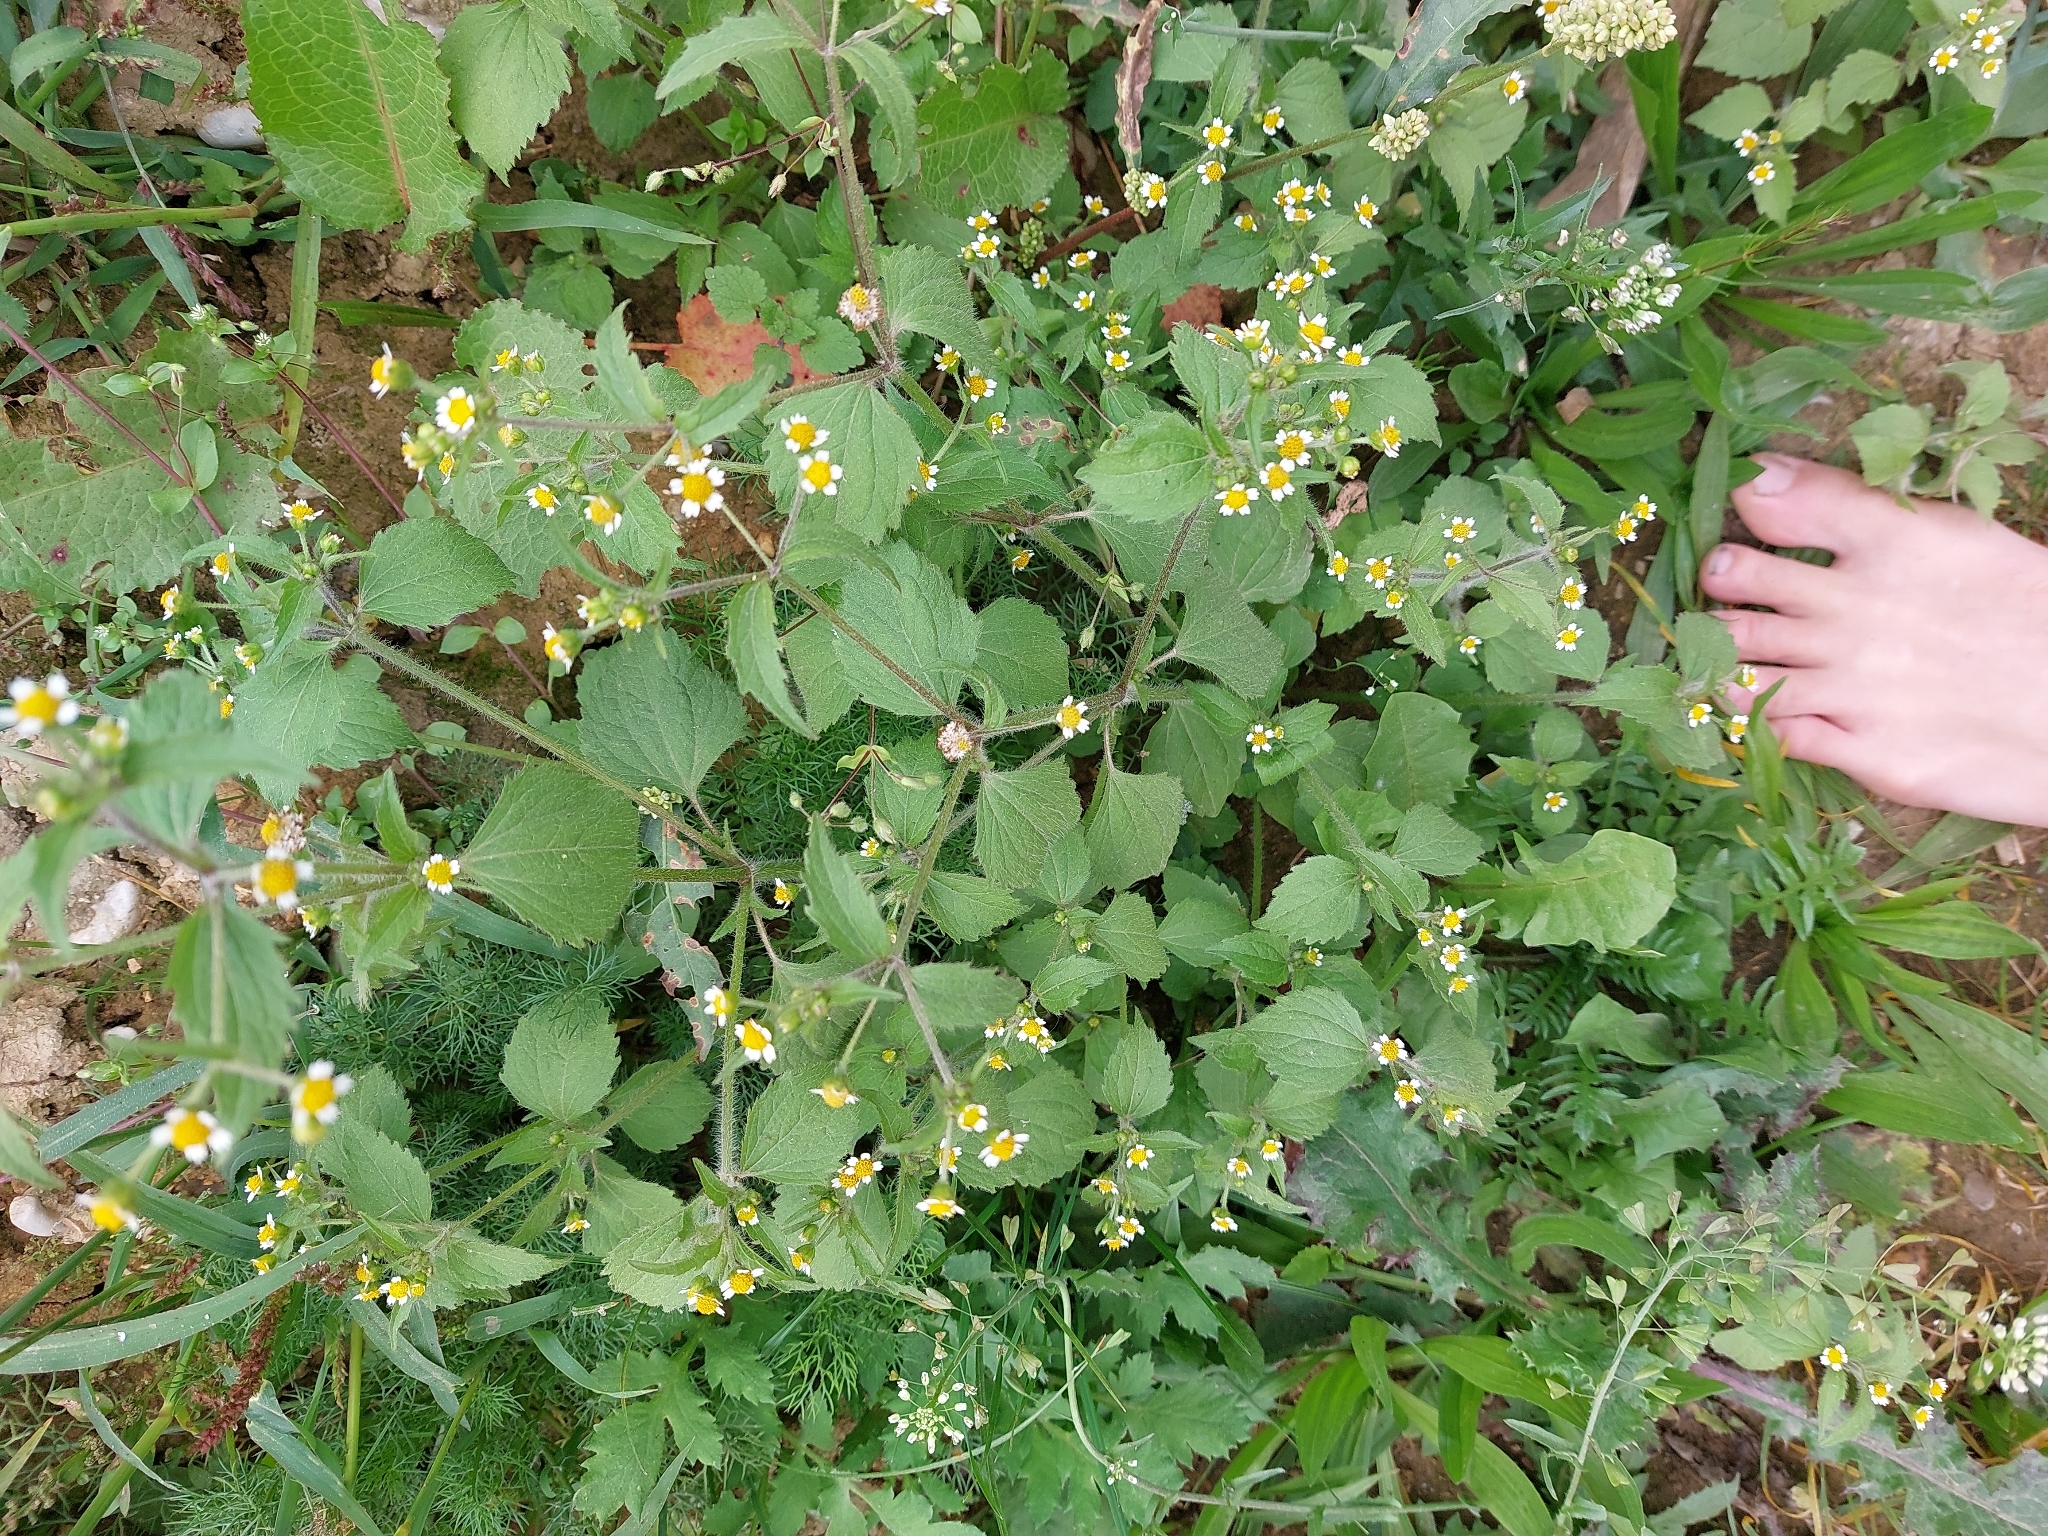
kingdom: Plantae
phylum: Tracheophyta
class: Magnoliopsida
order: Asterales
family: Asteraceae
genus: Galinsoga
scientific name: Galinsoga quadriradiata
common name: Shaggy soldier
